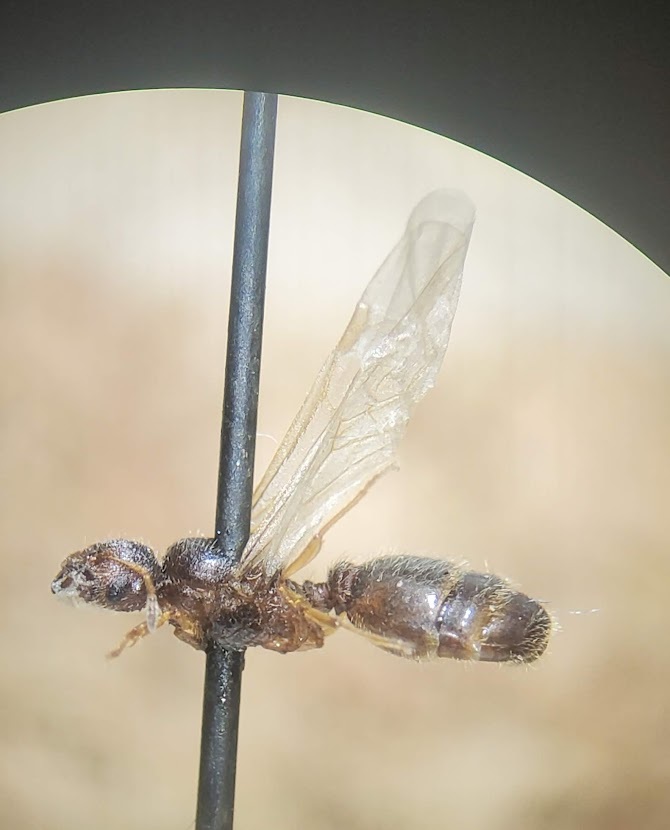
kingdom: Animalia
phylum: Arthropoda
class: Insecta
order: Hymenoptera
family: Formicidae
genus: Pheidole
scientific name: Pheidole bicarinata
